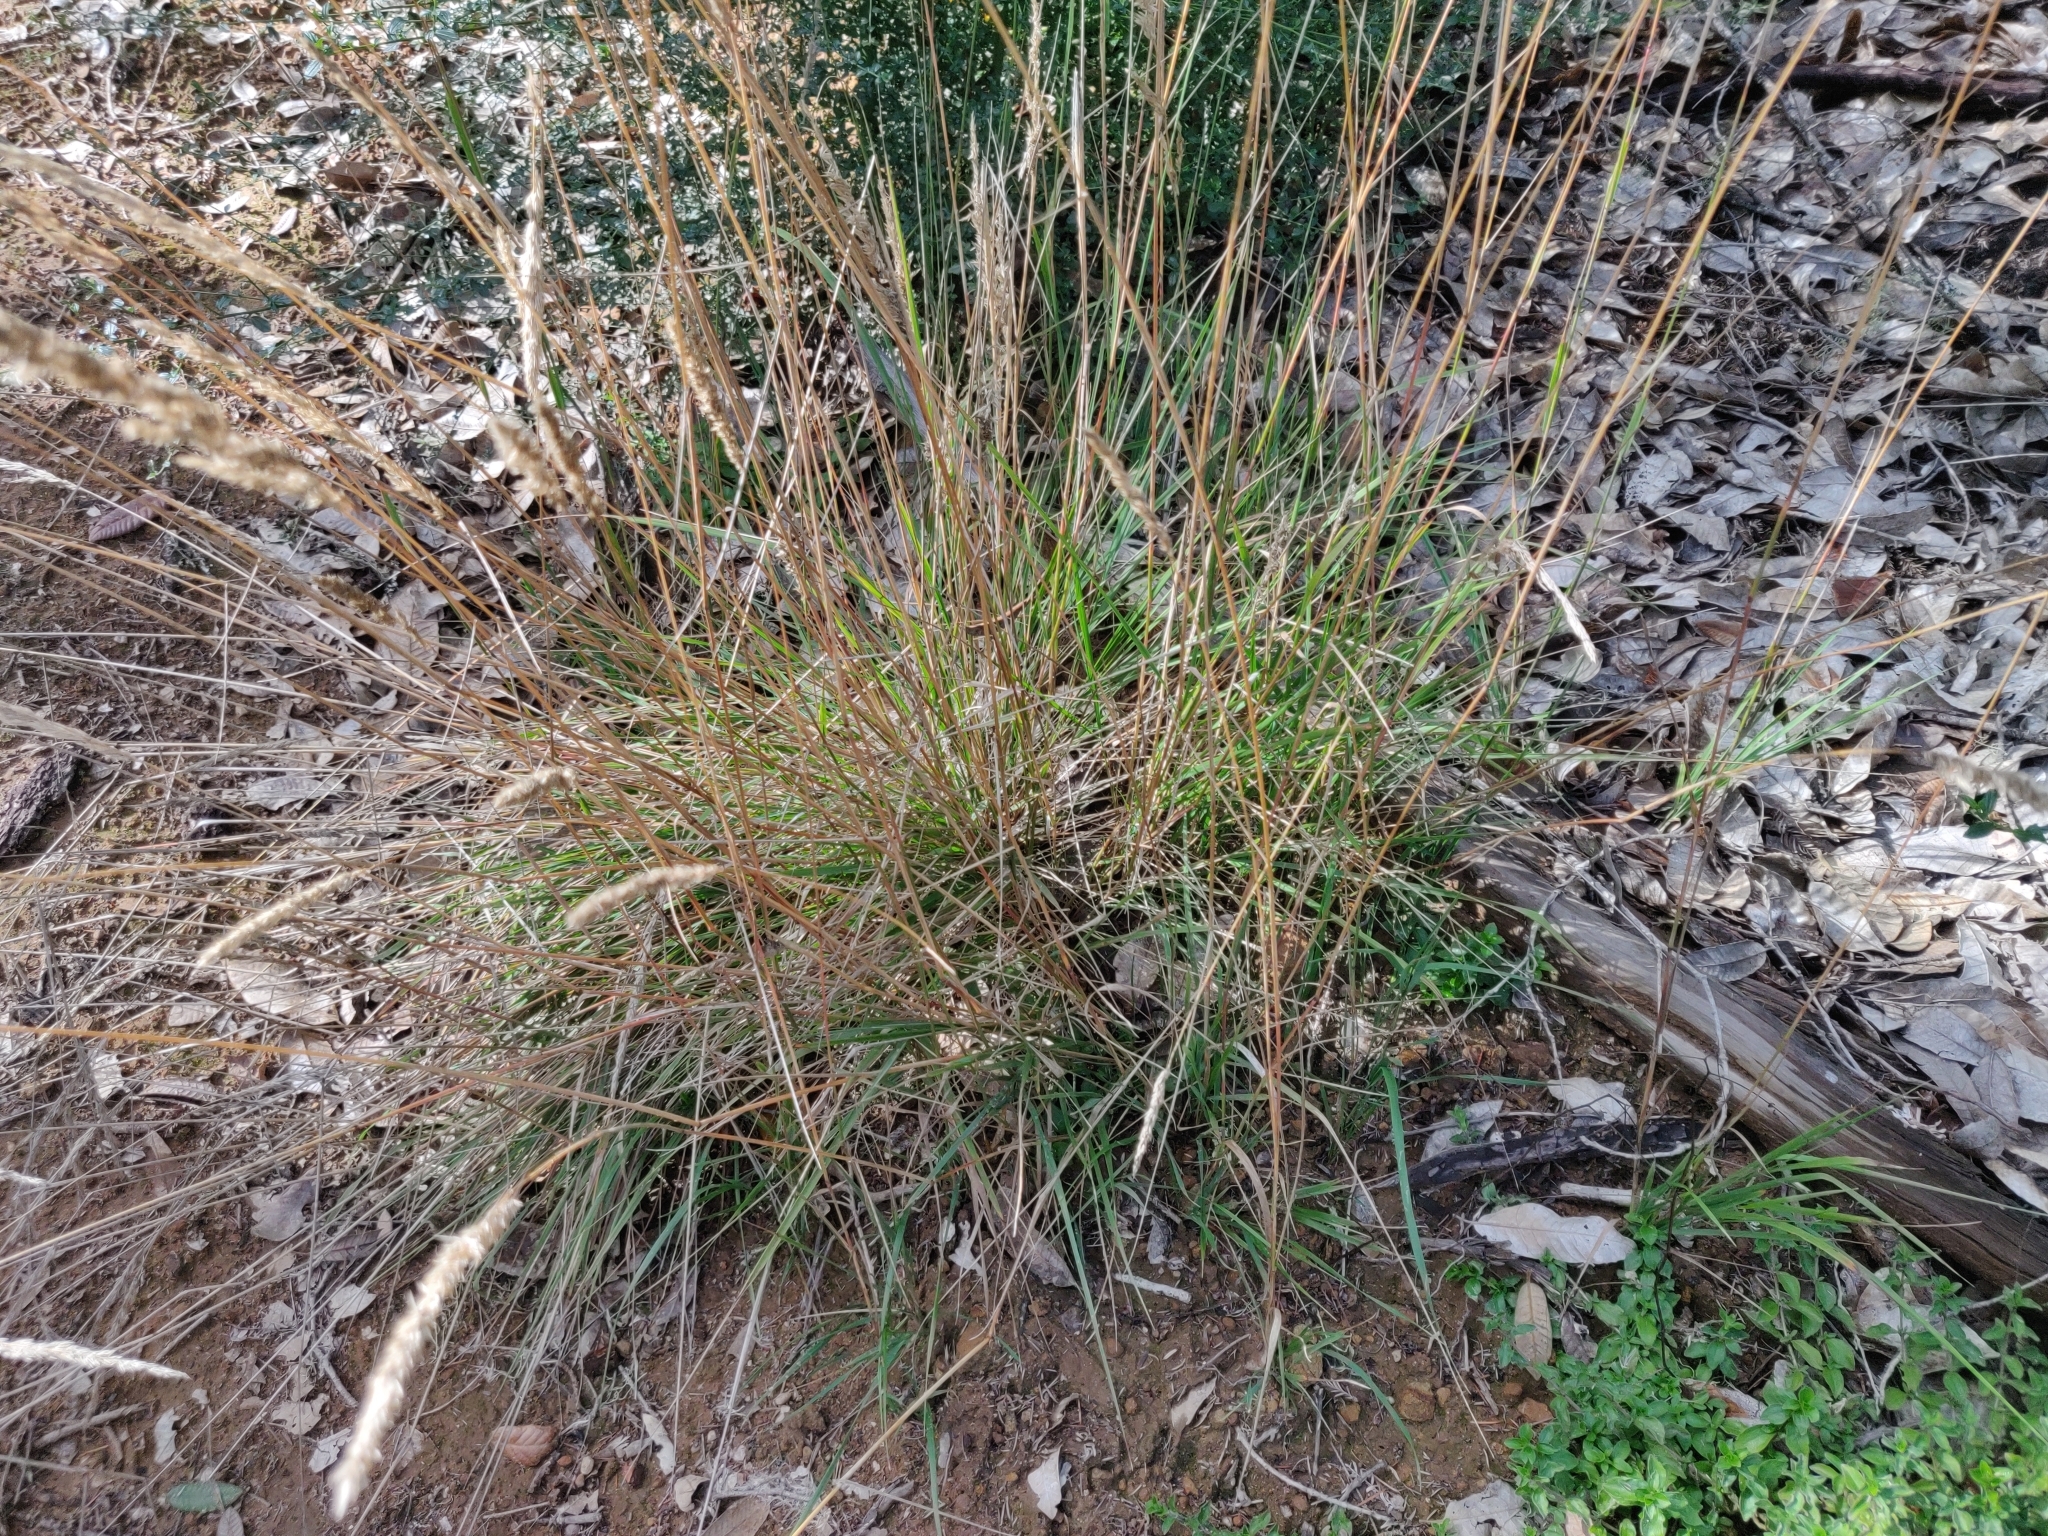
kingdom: Plantae
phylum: Tracheophyta
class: Liliopsida
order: Poales
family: Poaceae
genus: Calamagrostis
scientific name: Calamagrostis rubescens
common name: Pine grass
